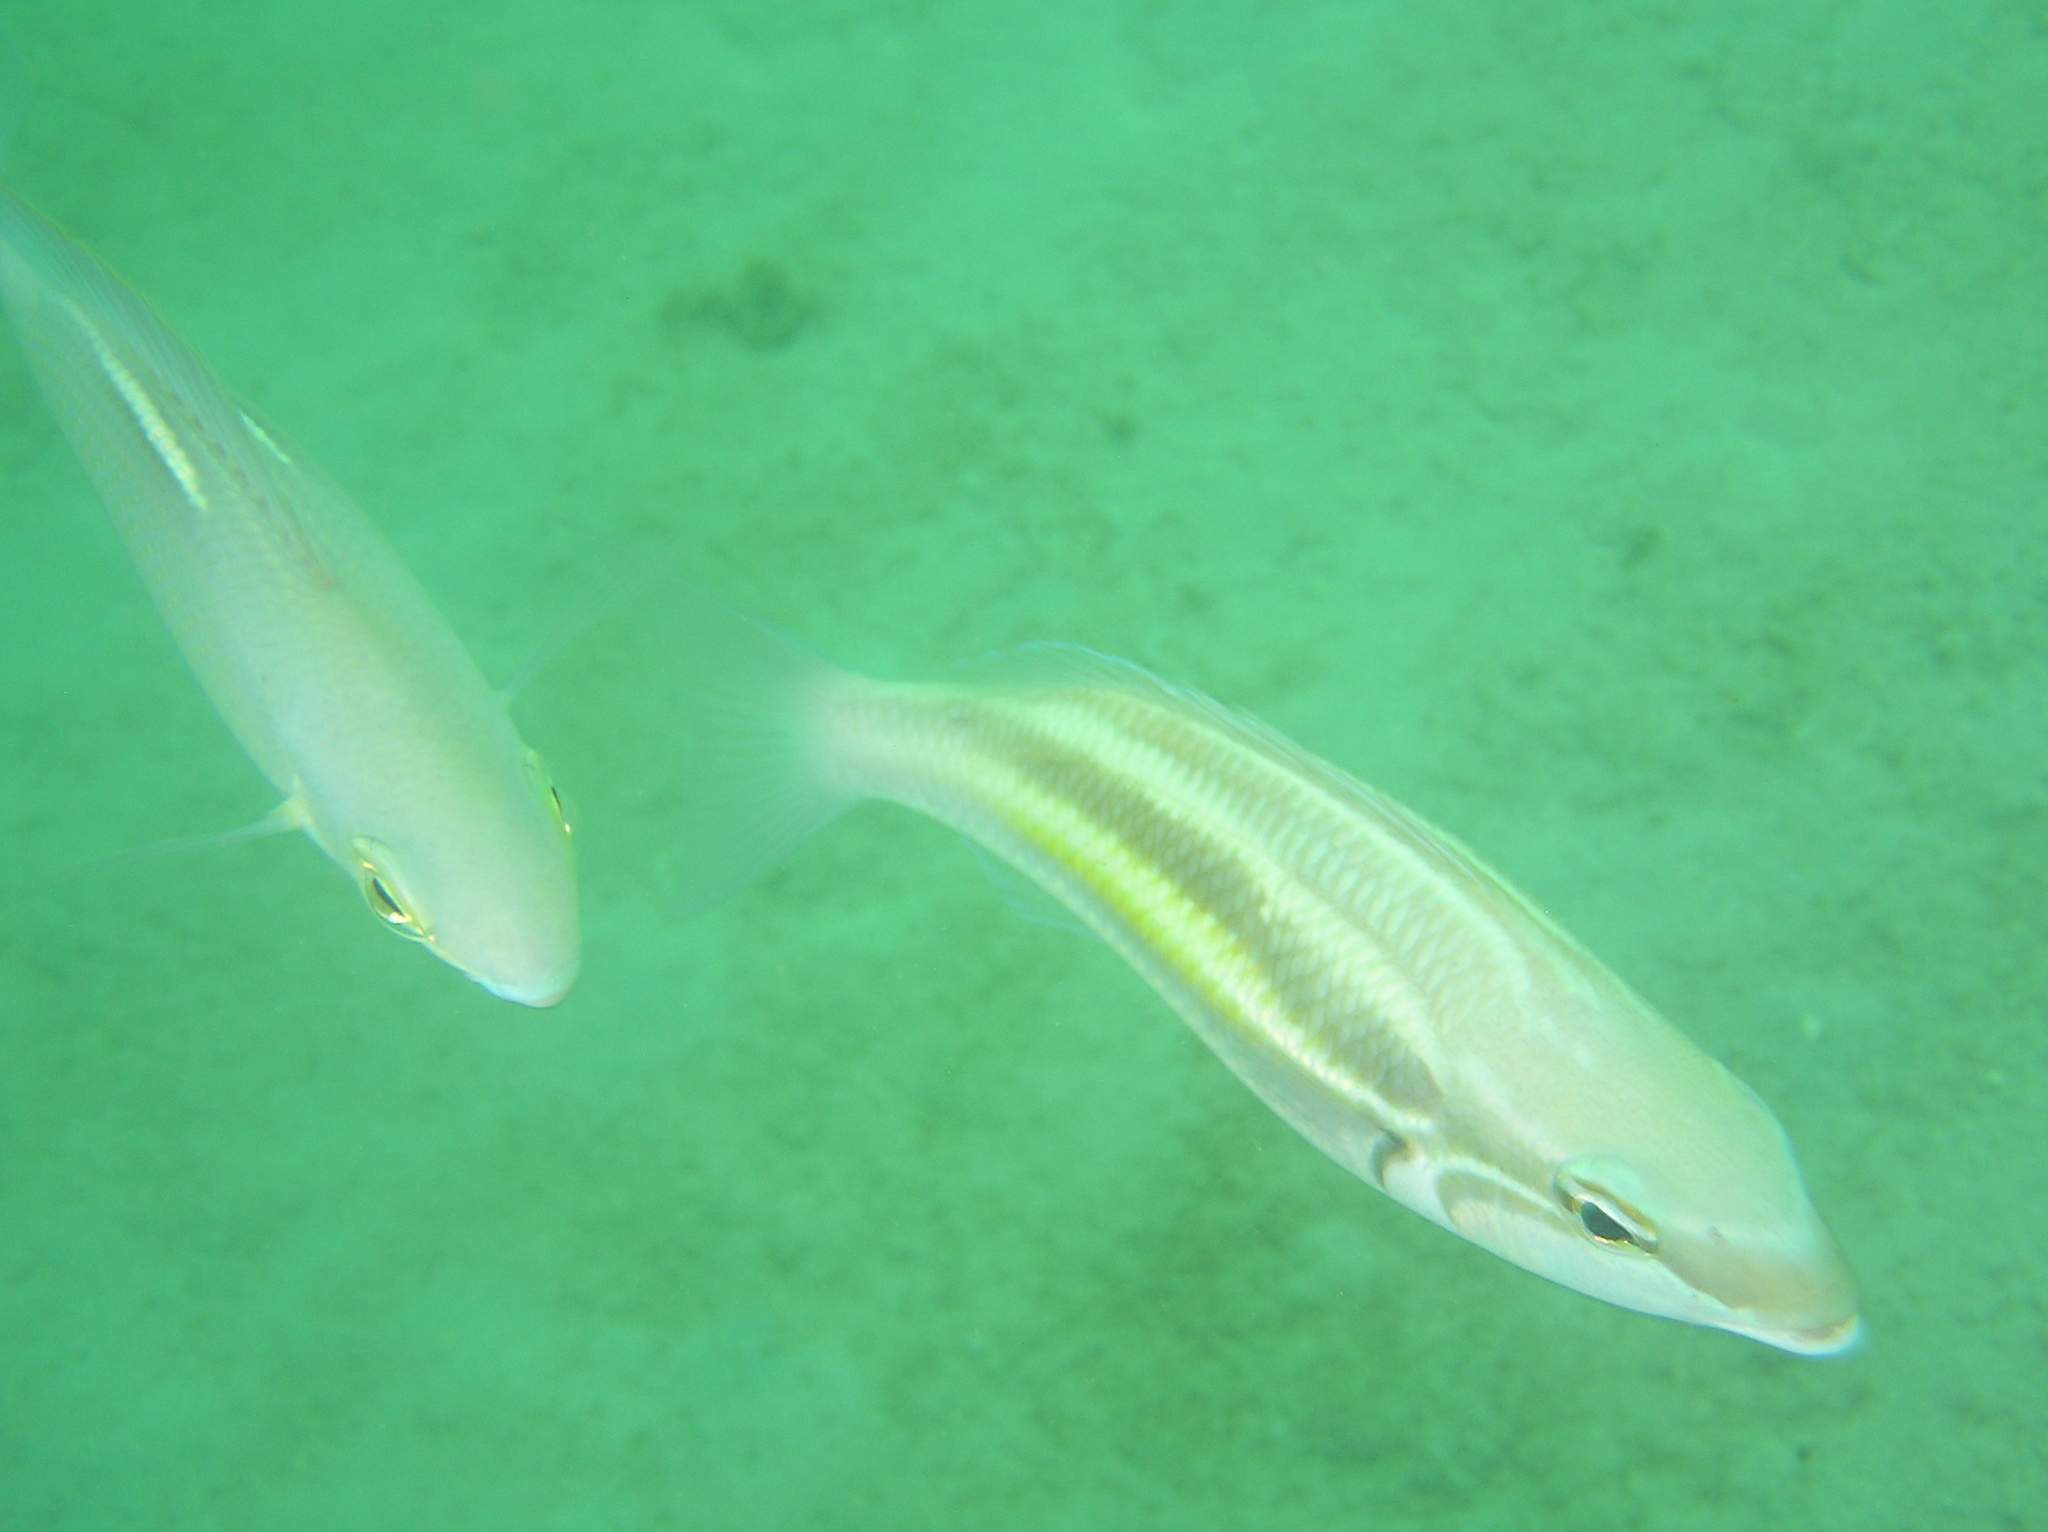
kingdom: Animalia
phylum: Chordata
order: Perciformes
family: Nemipteridae
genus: Pentapodus
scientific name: Pentapodus trivittatus
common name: Three-striped whiptail
